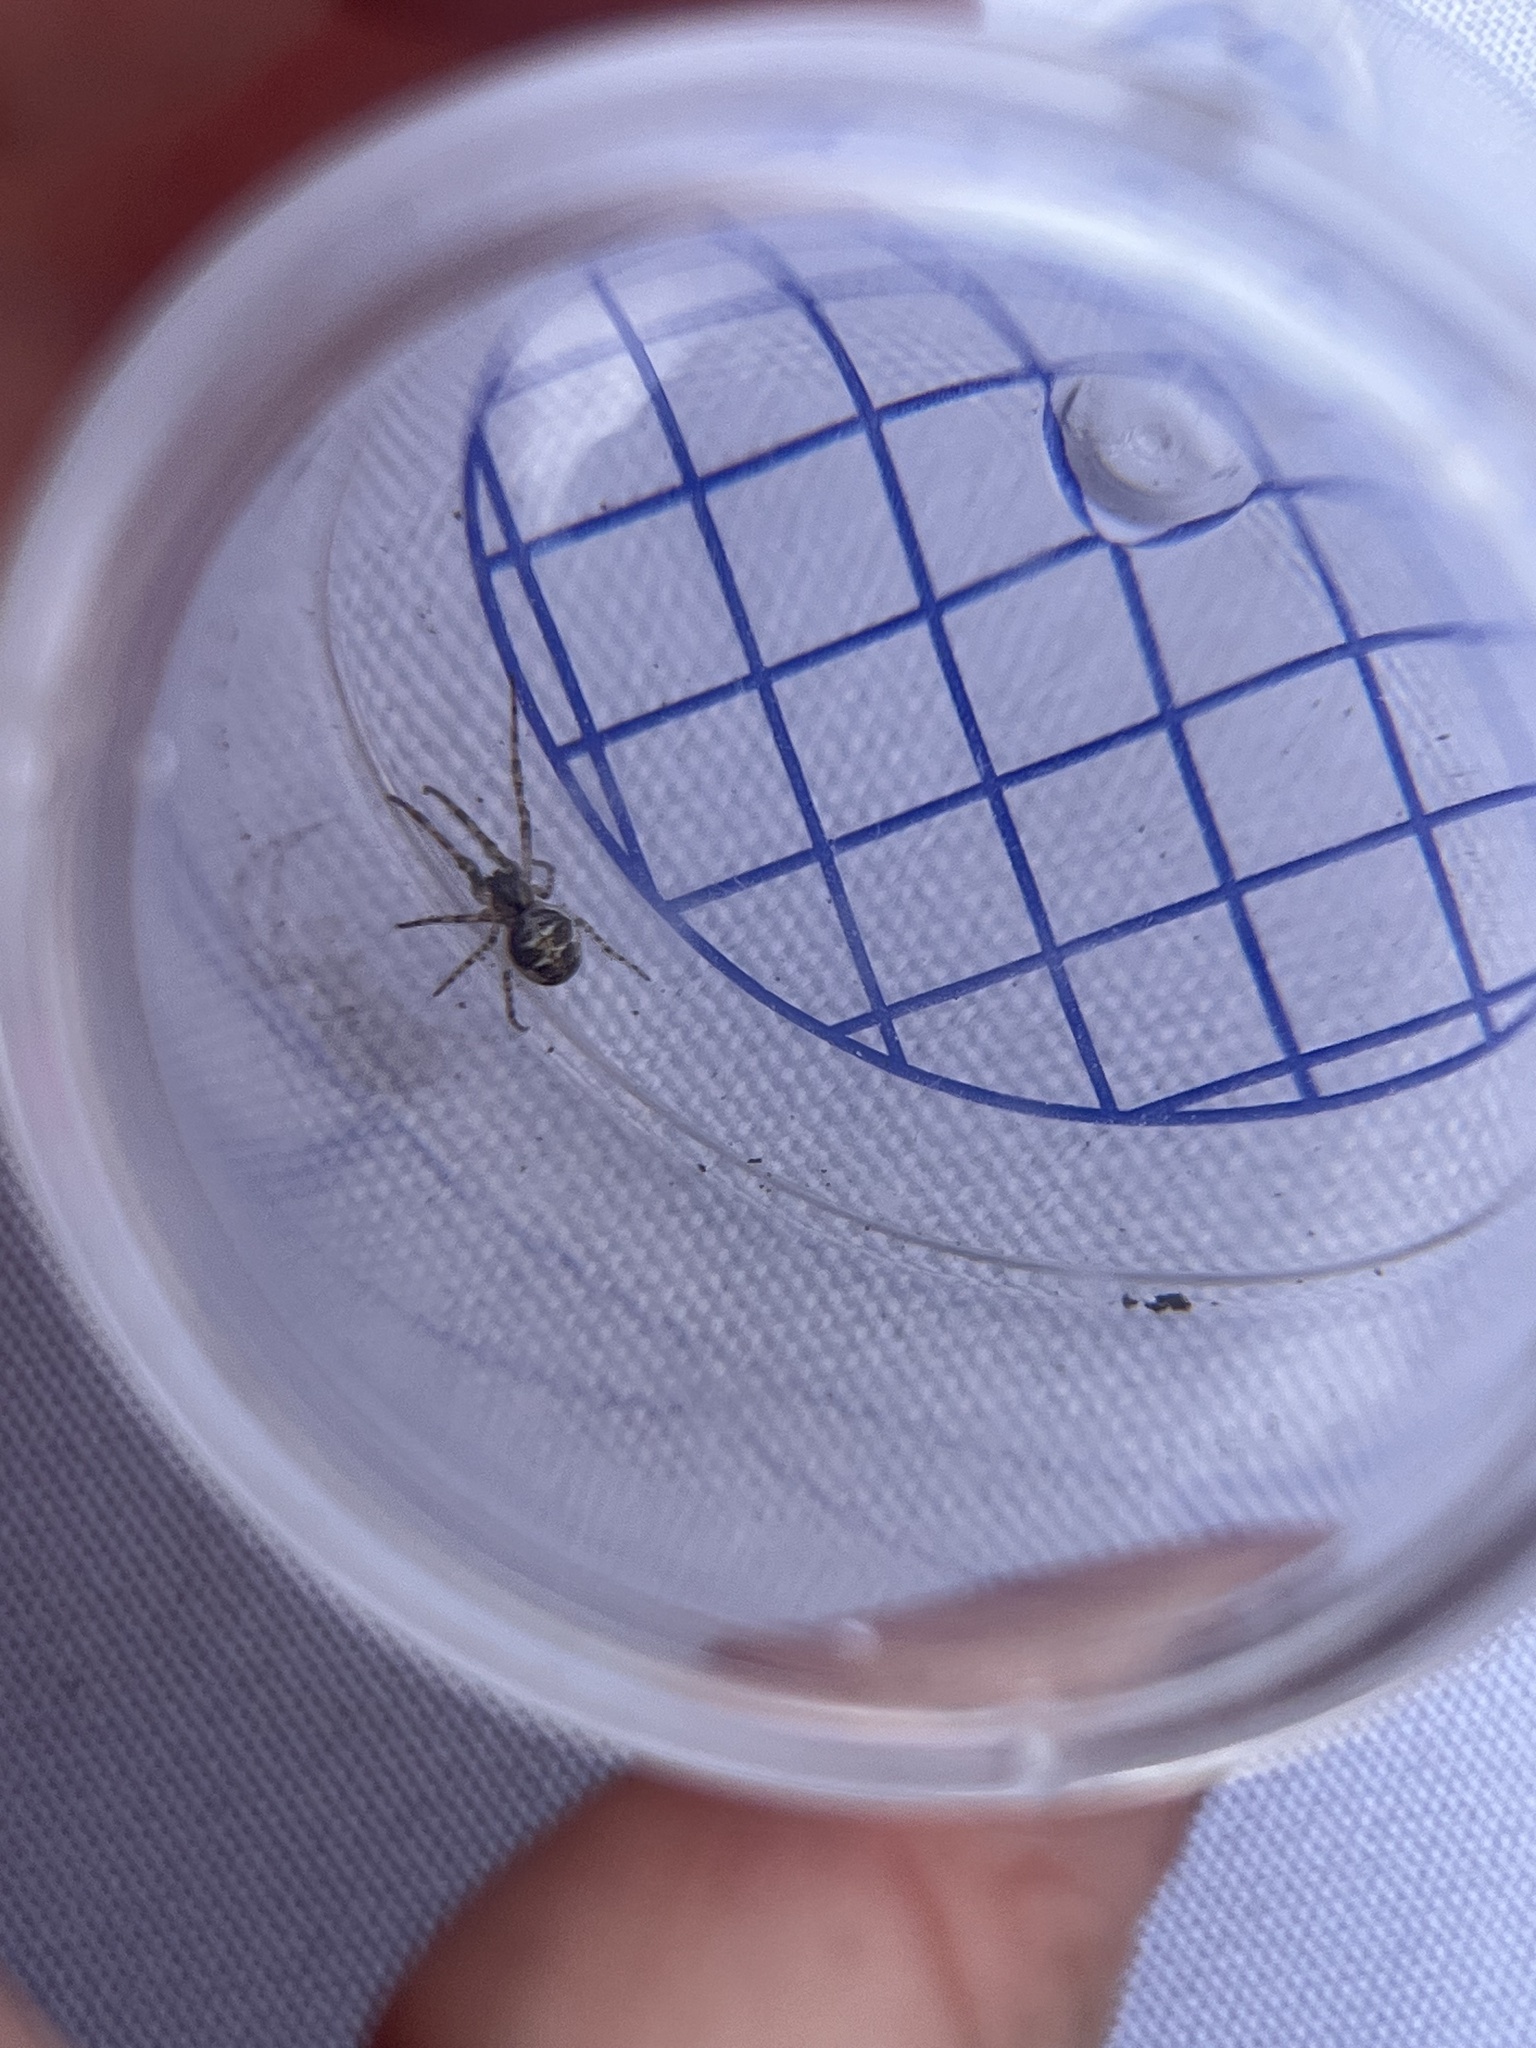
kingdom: Animalia
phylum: Arthropoda
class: Arachnida
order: Araneae
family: Tetragnathidae
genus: Metellina
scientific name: Metellina
